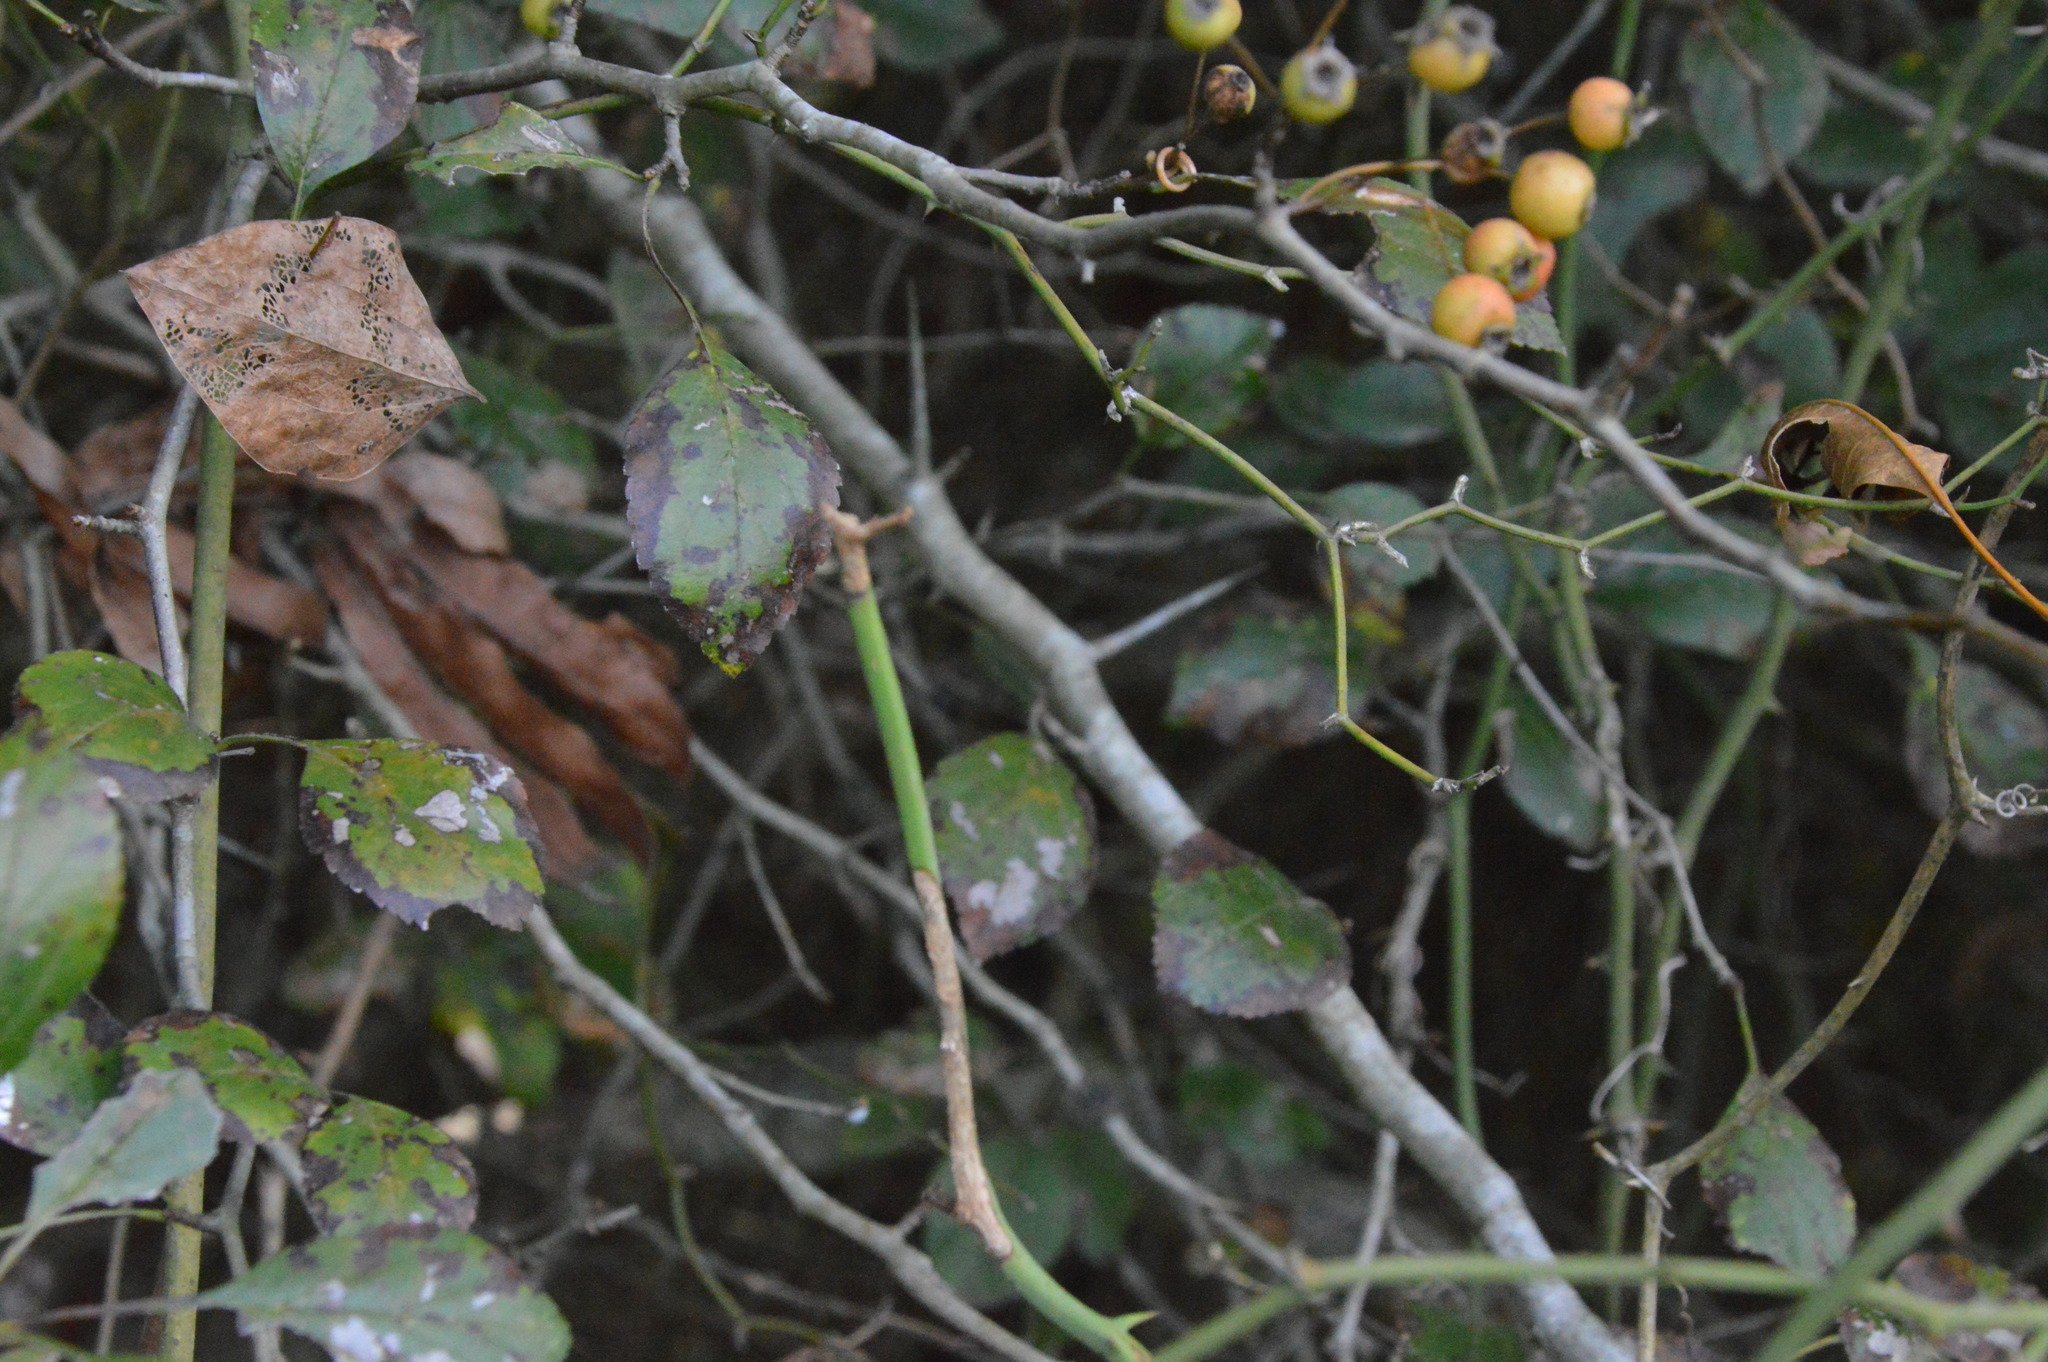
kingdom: Plantae
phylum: Tracheophyta
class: Magnoliopsida
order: Aquifoliales
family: Aquifoliaceae
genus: Ilex
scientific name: Ilex decidua
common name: Possum-haw
